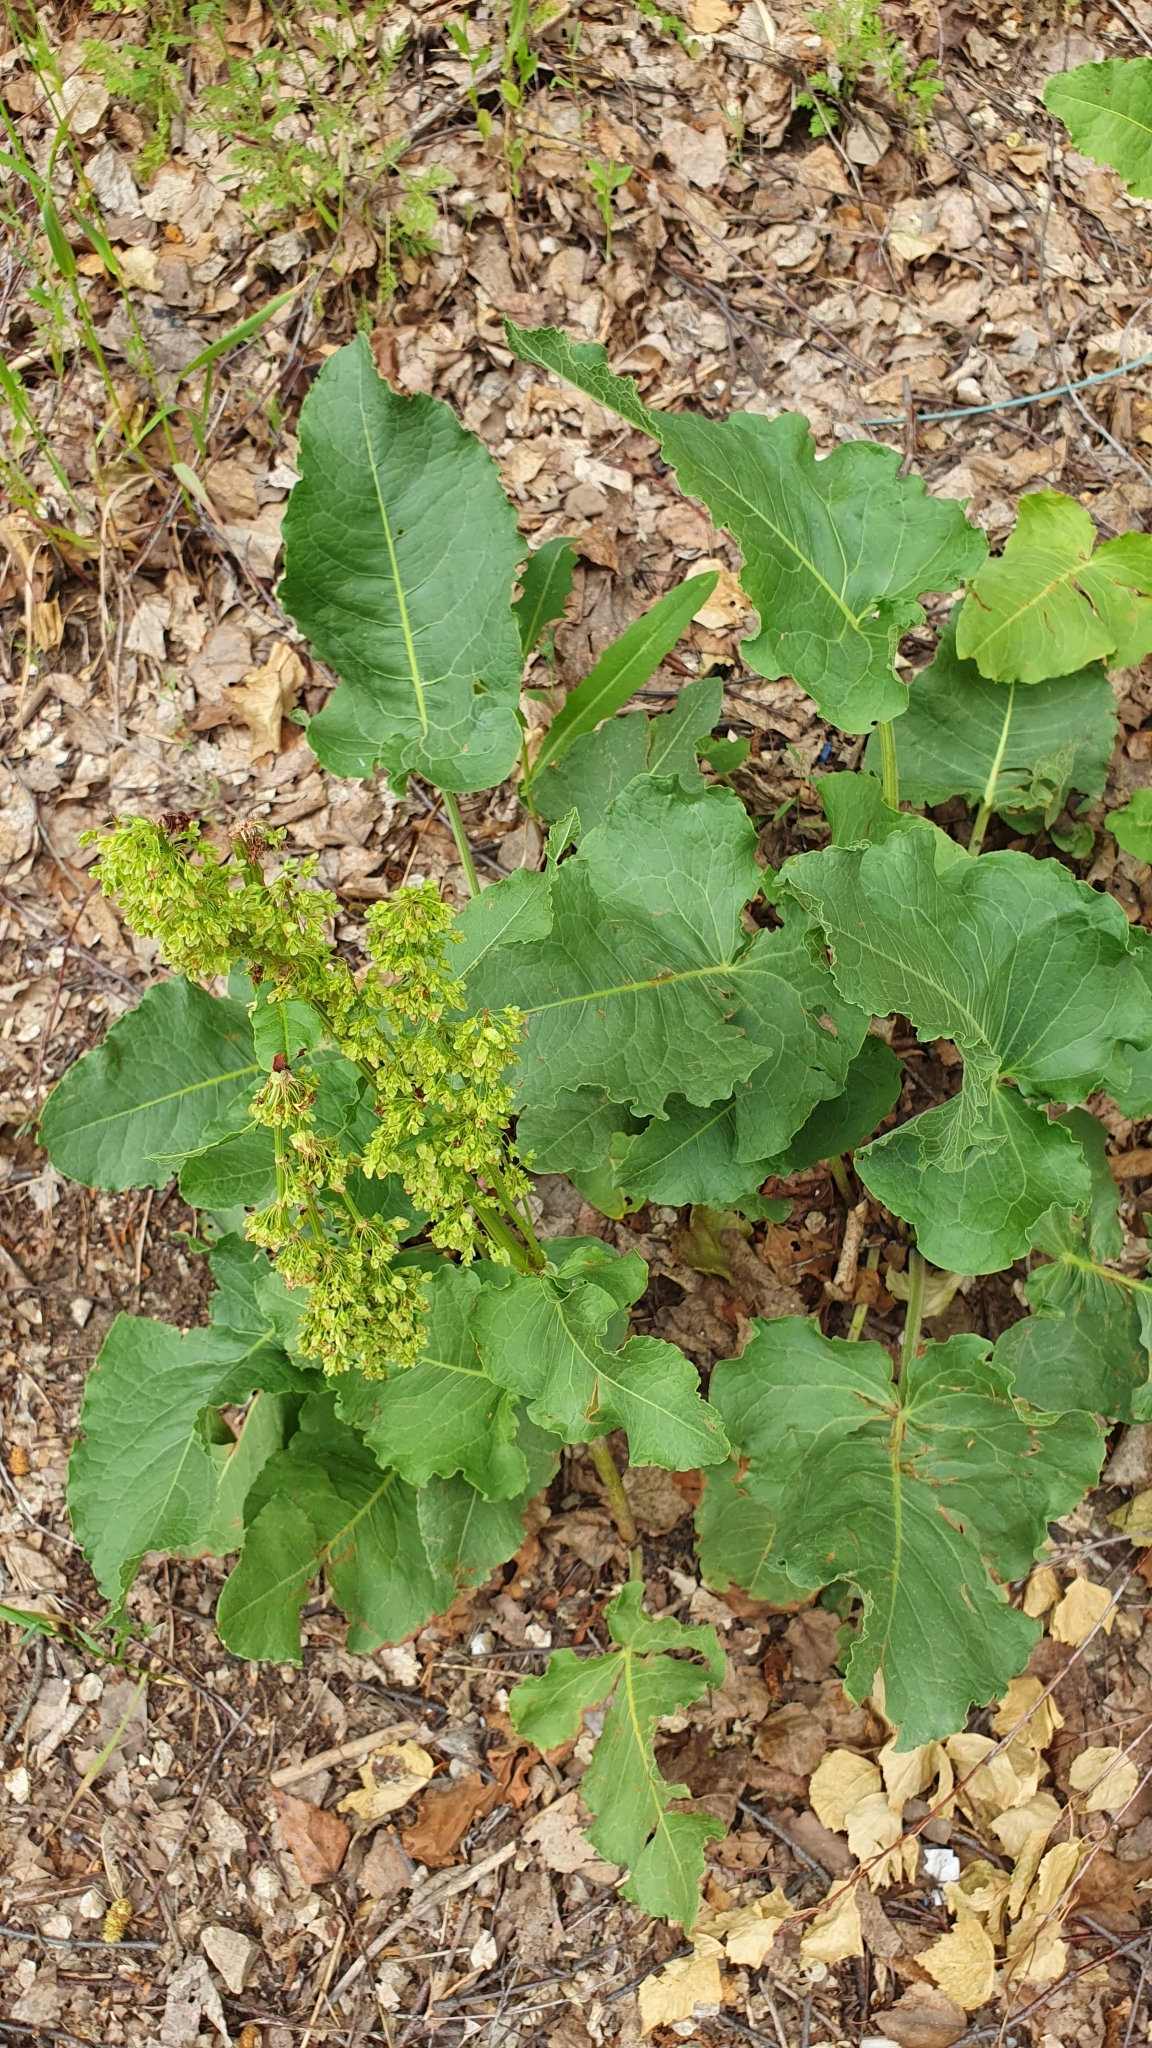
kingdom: Plantae
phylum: Tracheophyta
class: Magnoliopsida
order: Caryophyllales
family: Polygonaceae
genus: Rumex
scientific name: Rumex confertus
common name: Russian dock
